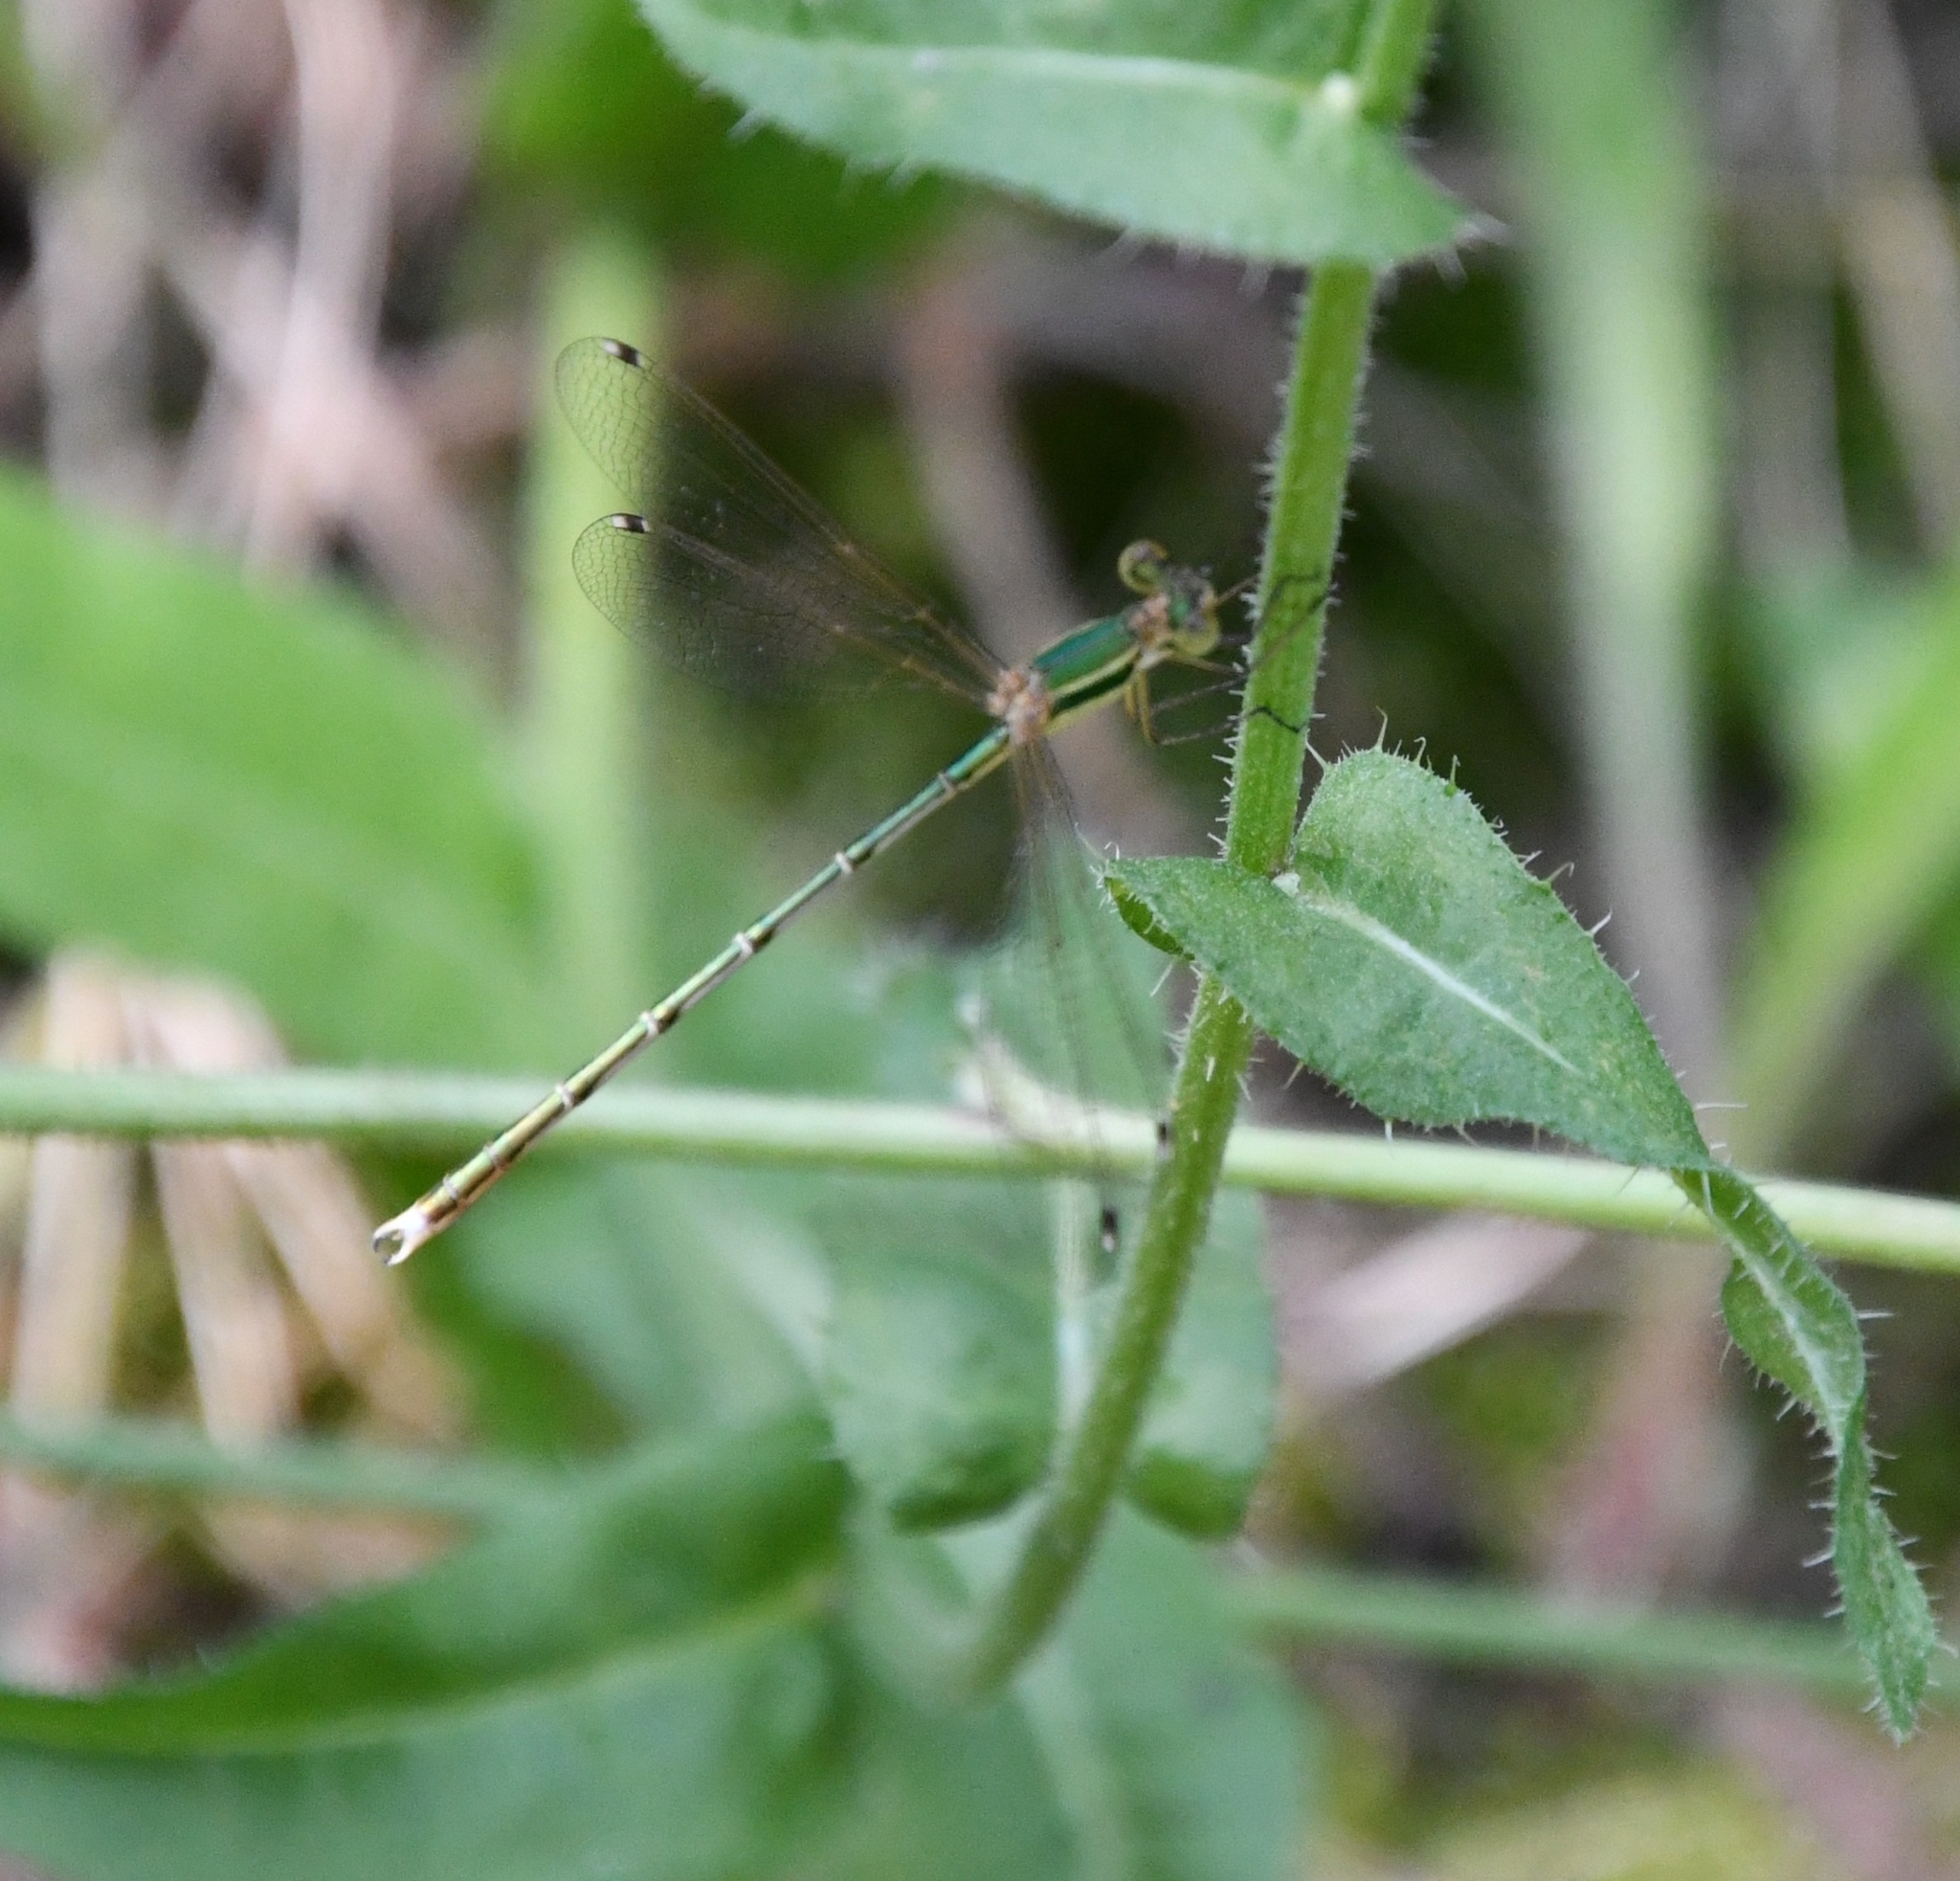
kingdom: Animalia
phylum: Arthropoda
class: Insecta
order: Odonata
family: Lestidae
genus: Lestes
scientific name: Lestes barbarus
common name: Migrant spreadwing
